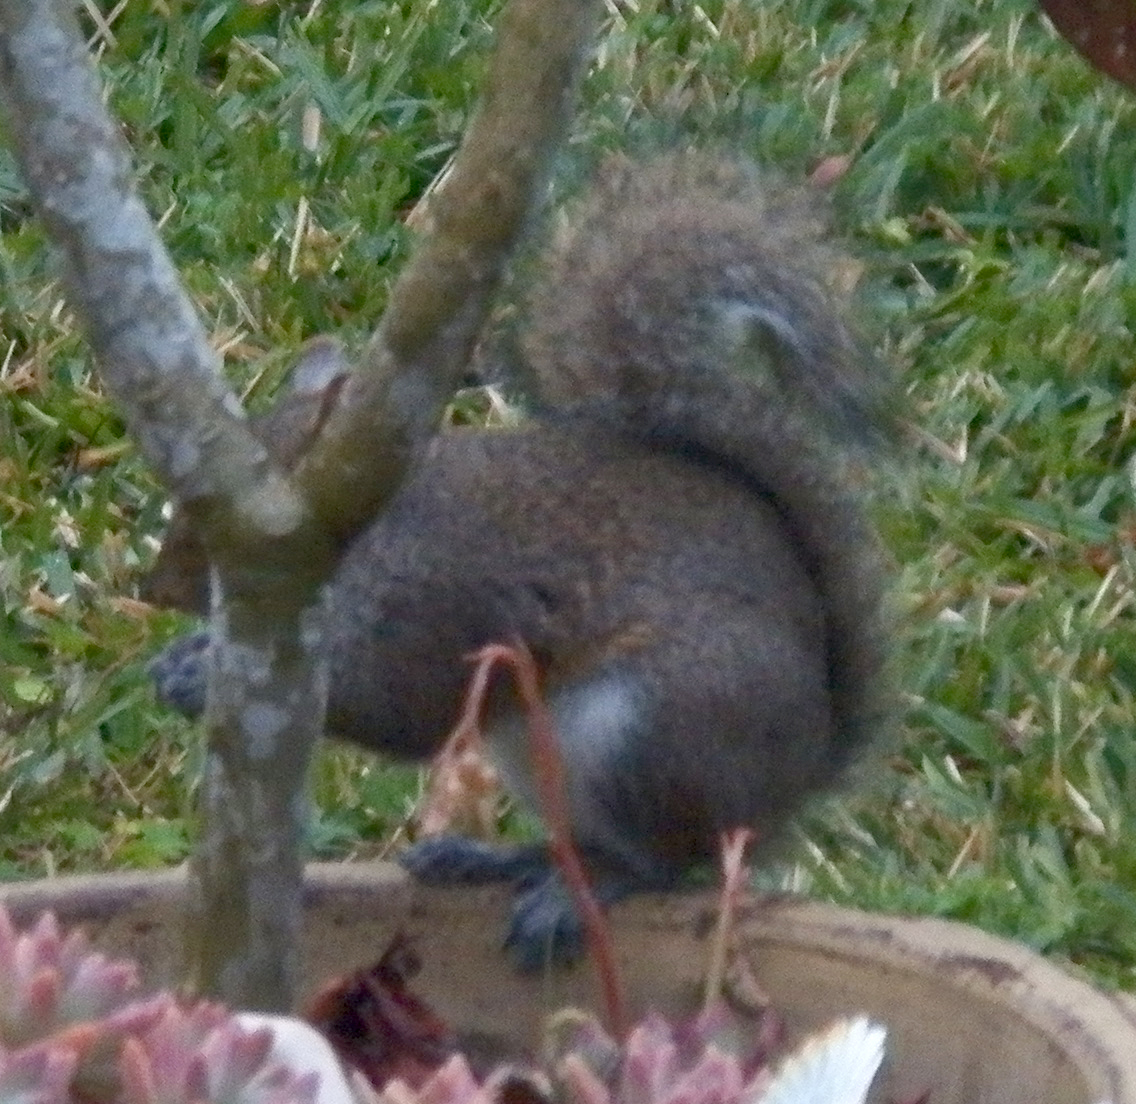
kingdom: Animalia
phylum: Chordata
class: Mammalia
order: Rodentia
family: Sciuridae
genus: Sciurus
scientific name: Sciurus carolinensis
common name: Eastern gray squirrel
